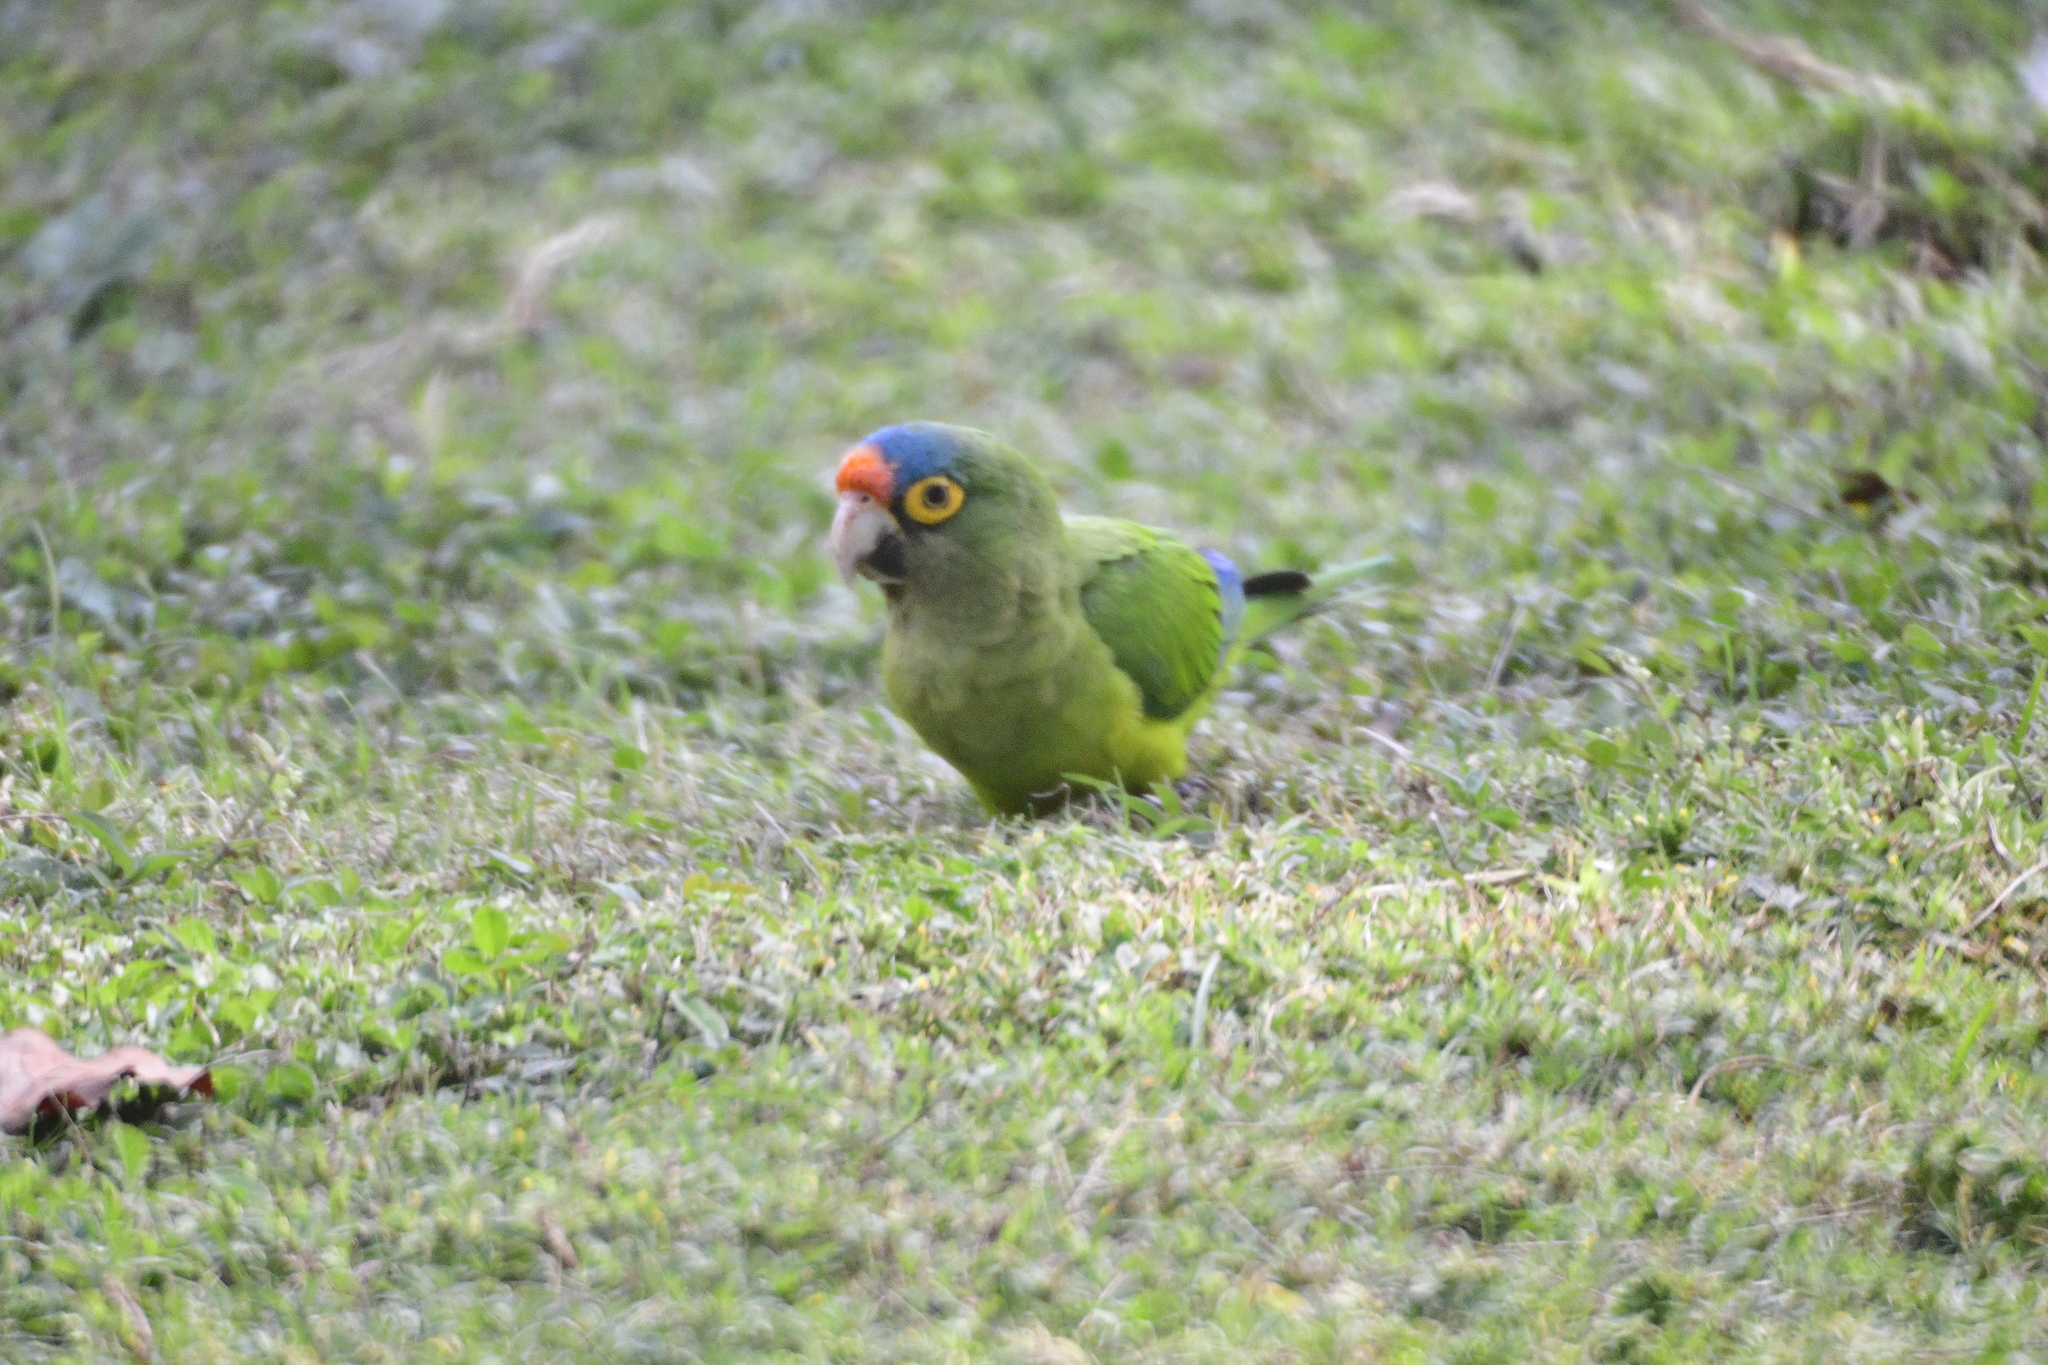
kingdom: Animalia
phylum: Chordata
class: Aves
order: Psittaciformes
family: Psittacidae
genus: Aratinga
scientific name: Aratinga canicularis
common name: Orange-fronted parakeet
